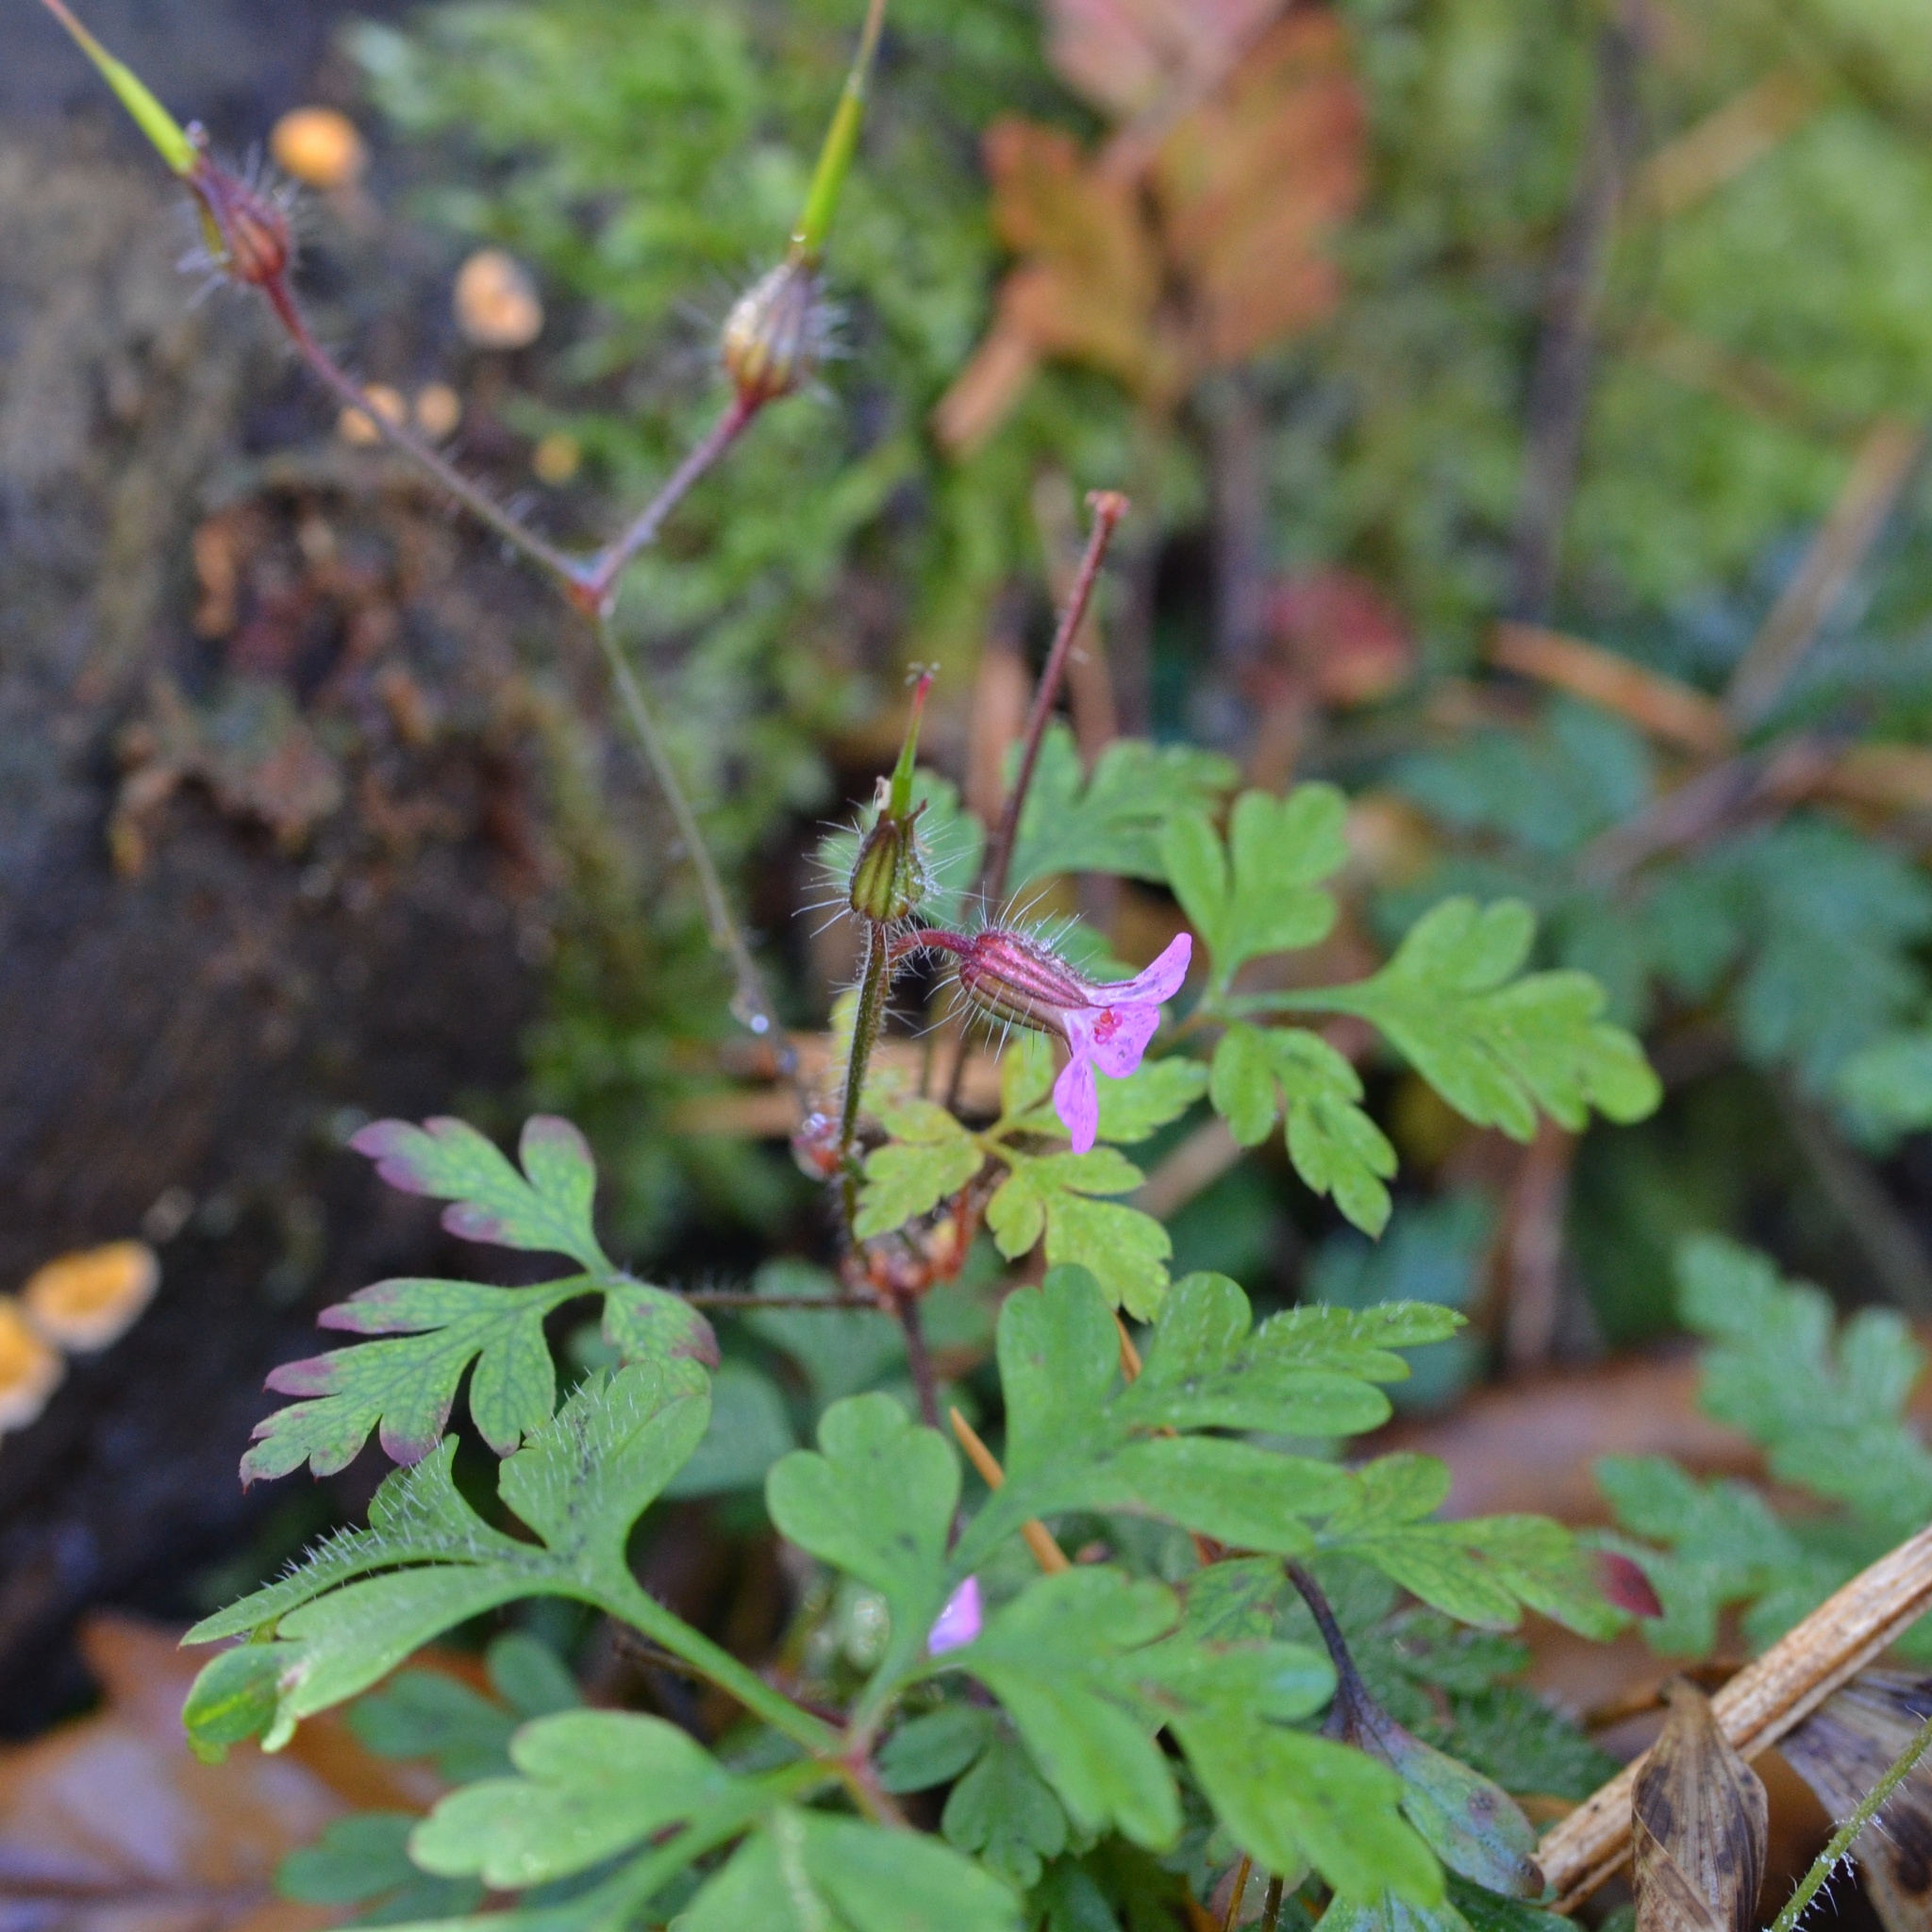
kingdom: Plantae
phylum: Tracheophyta
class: Magnoliopsida
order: Geraniales
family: Geraniaceae
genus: Geranium
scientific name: Geranium robertianum
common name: Herb-robert
